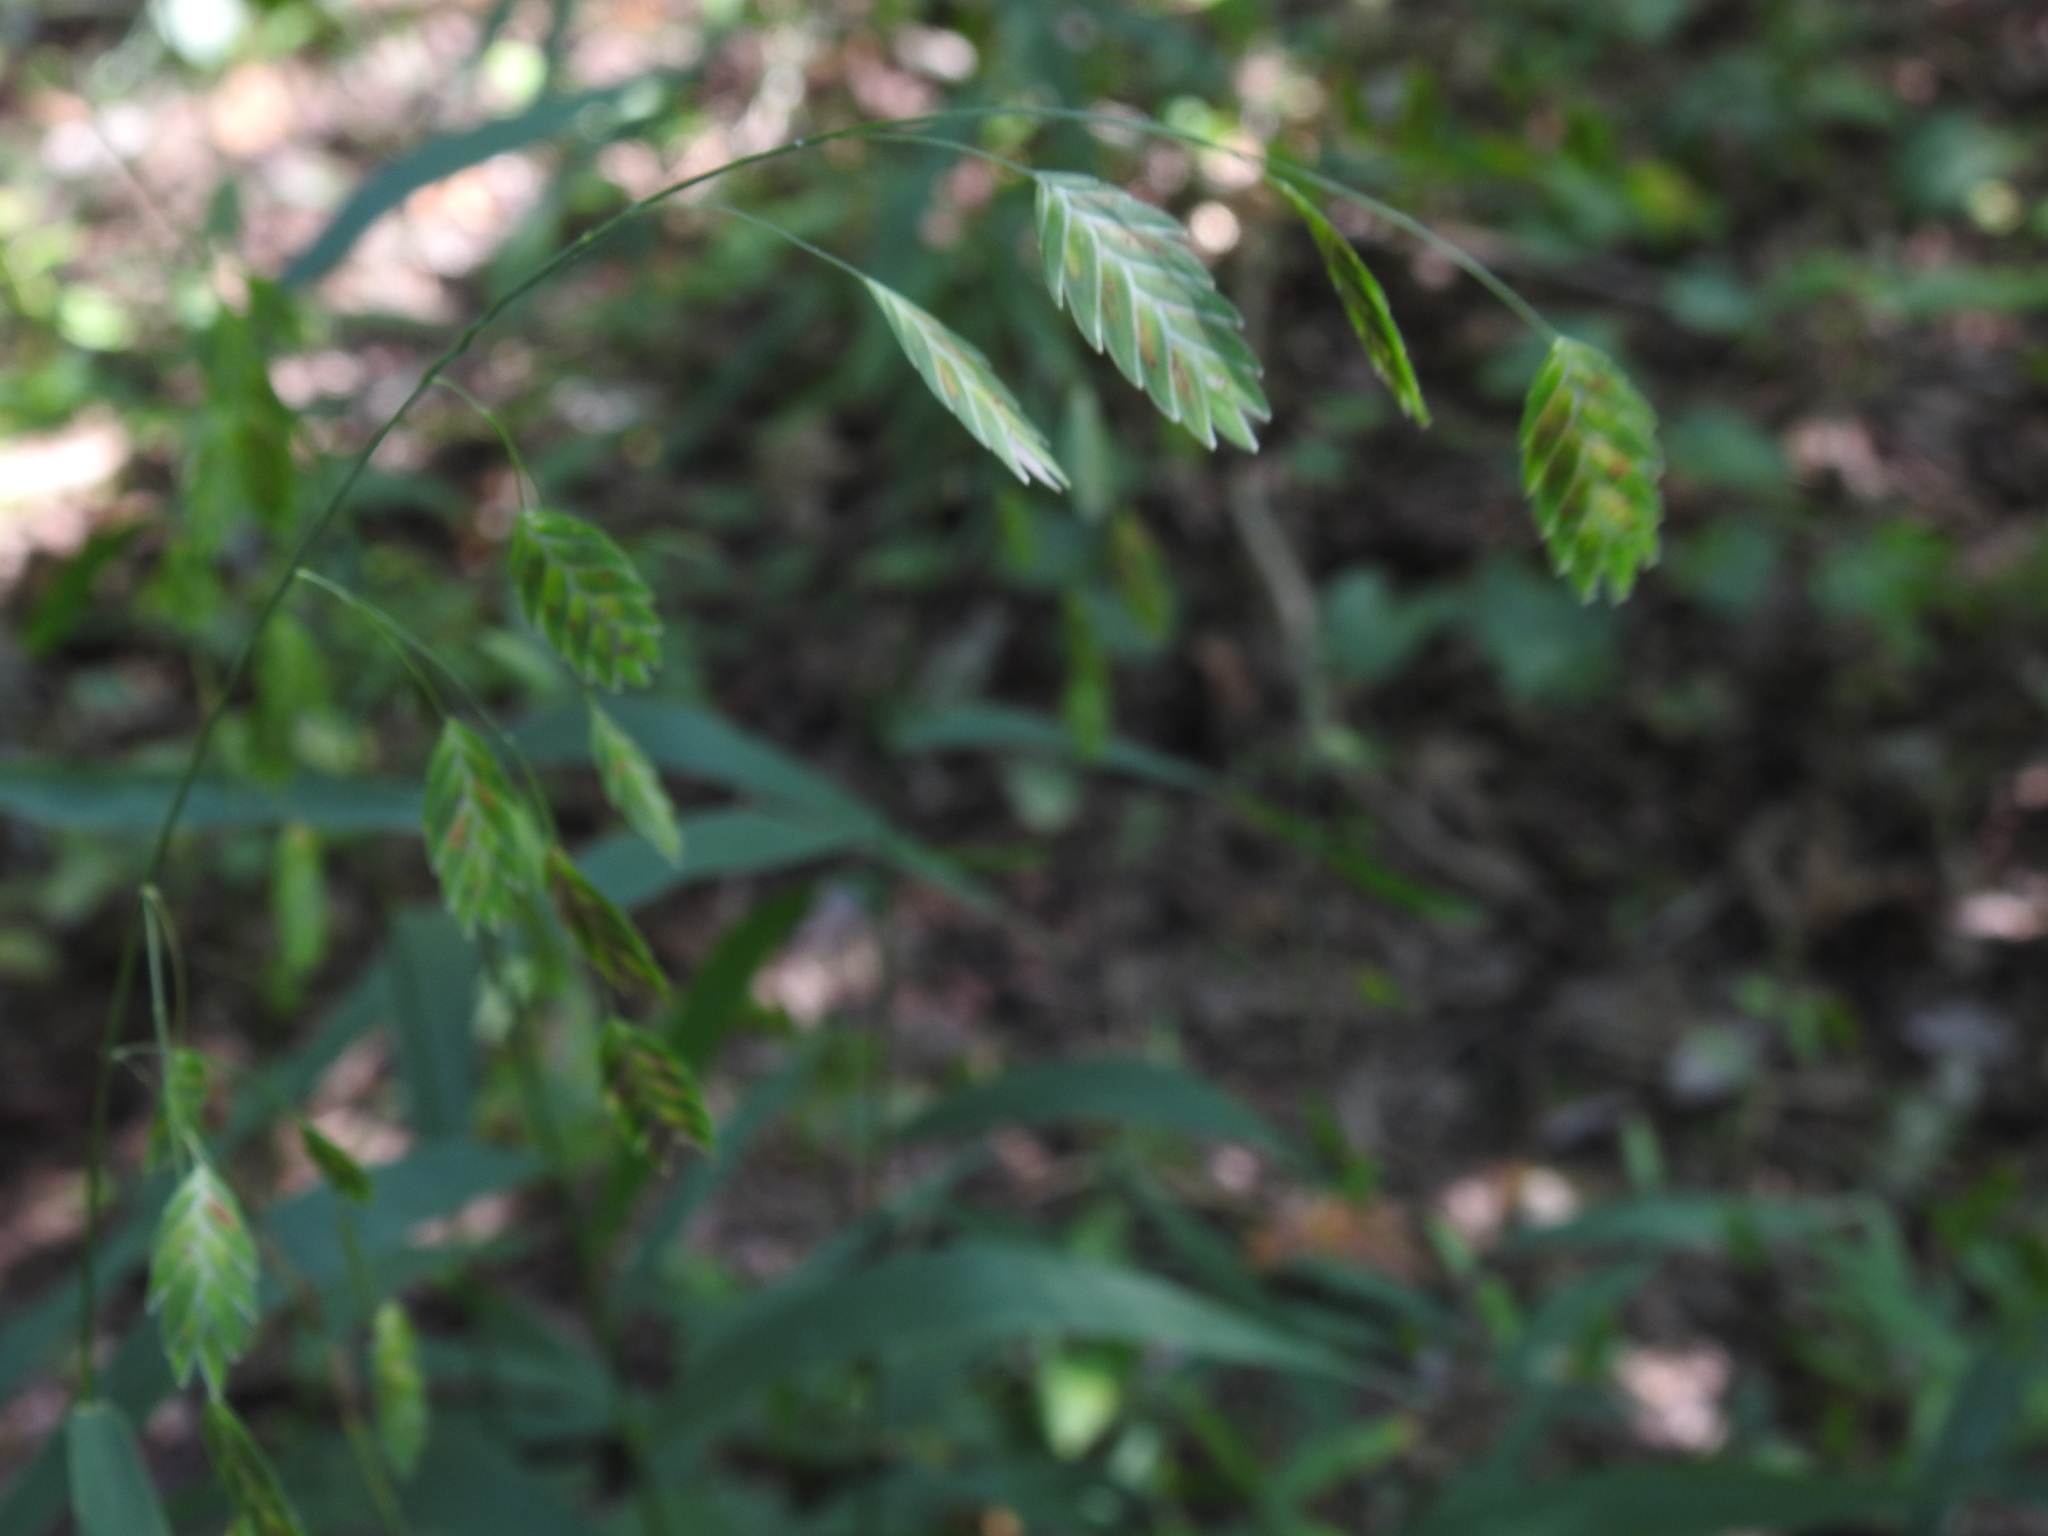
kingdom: Plantae
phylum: Tracheophyta
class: Liliopsida
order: Poales
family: Poaceae
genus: Chasmanthium
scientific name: Chasmanthium latifolium
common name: Broad-leaved chasmanthium
